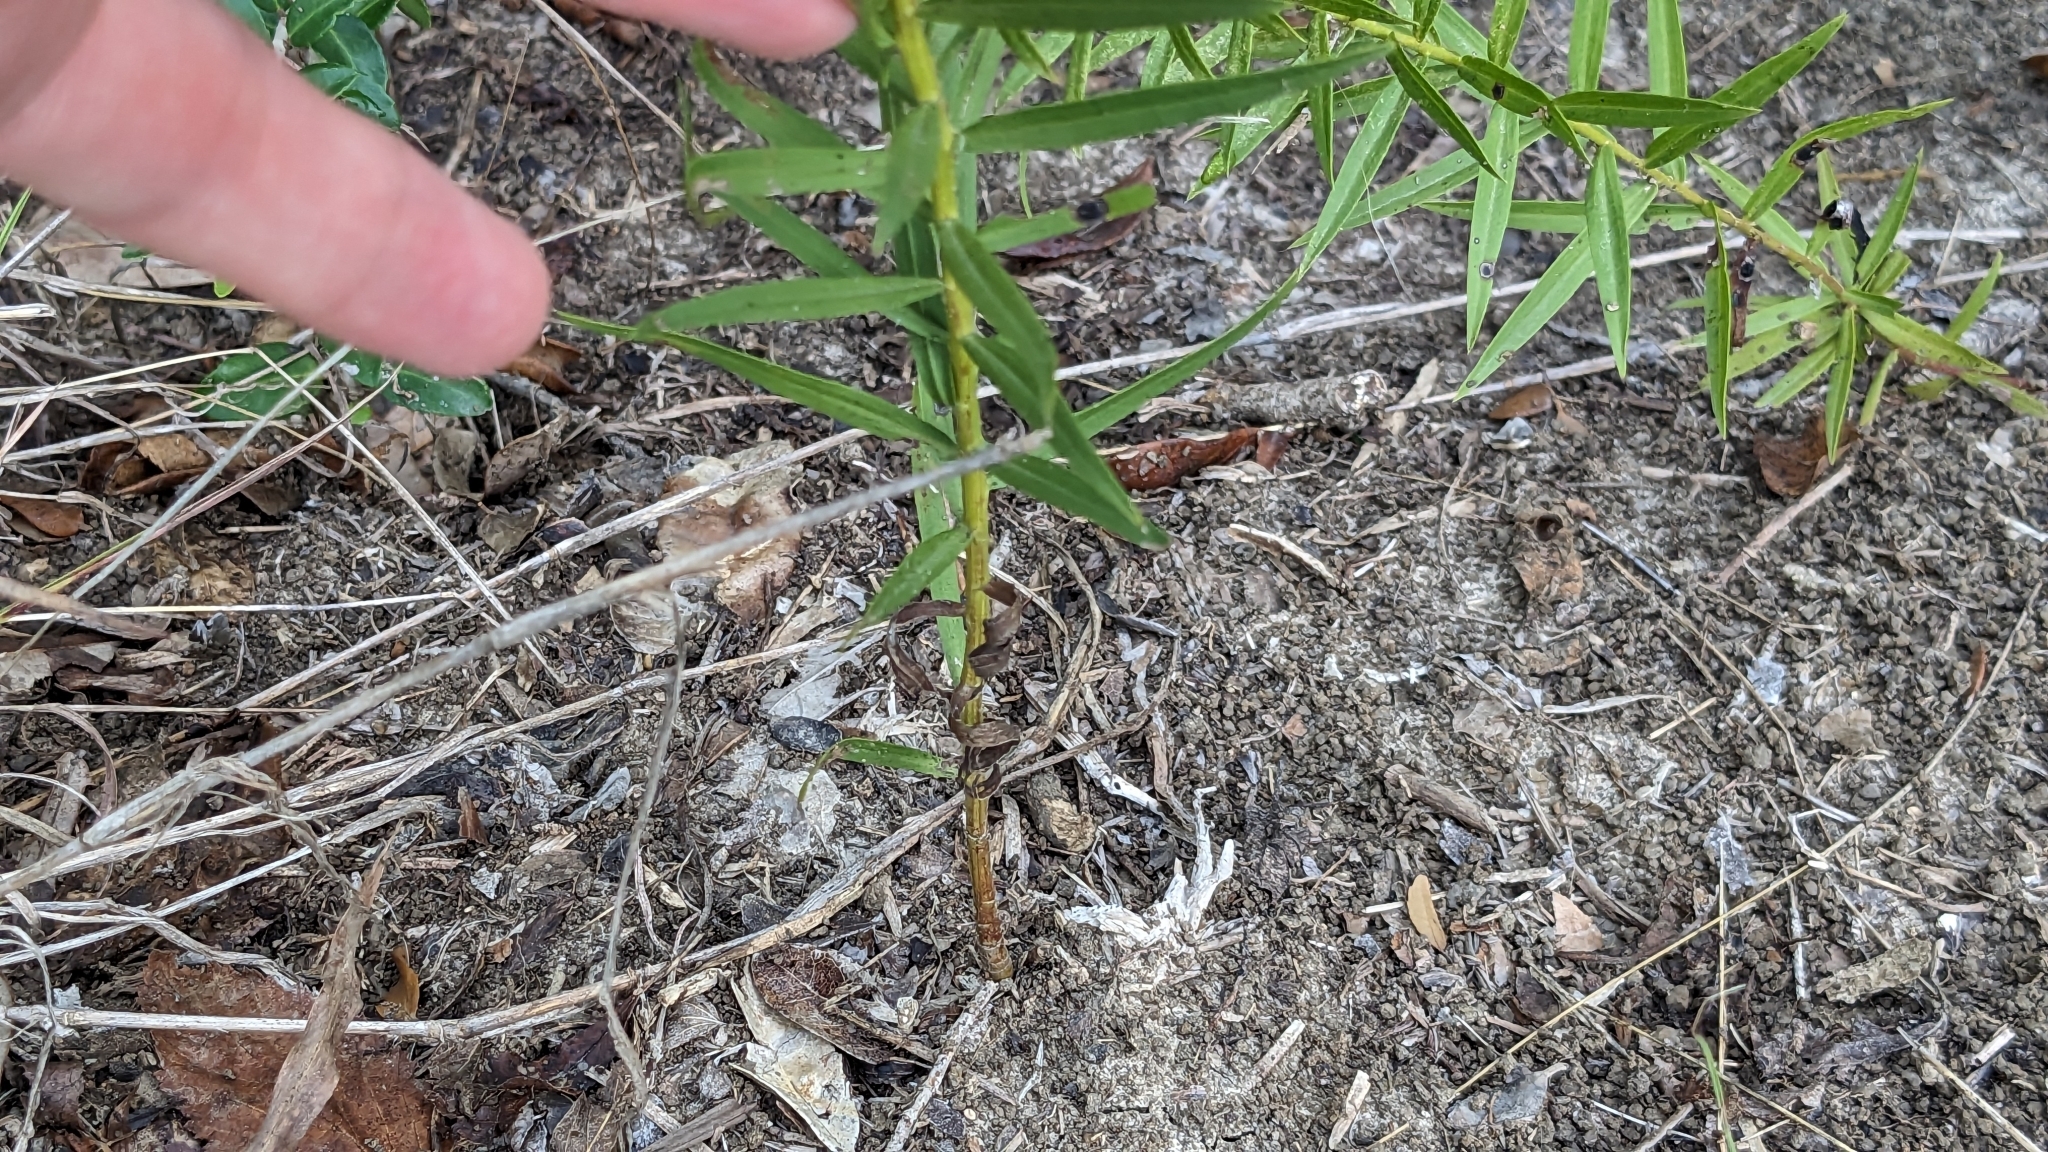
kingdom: Plantae
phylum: Tracheophyta
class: Magnoliopsida
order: Asterales
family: Asteraceae
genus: Euthamia
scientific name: Euthamia leptocephala
